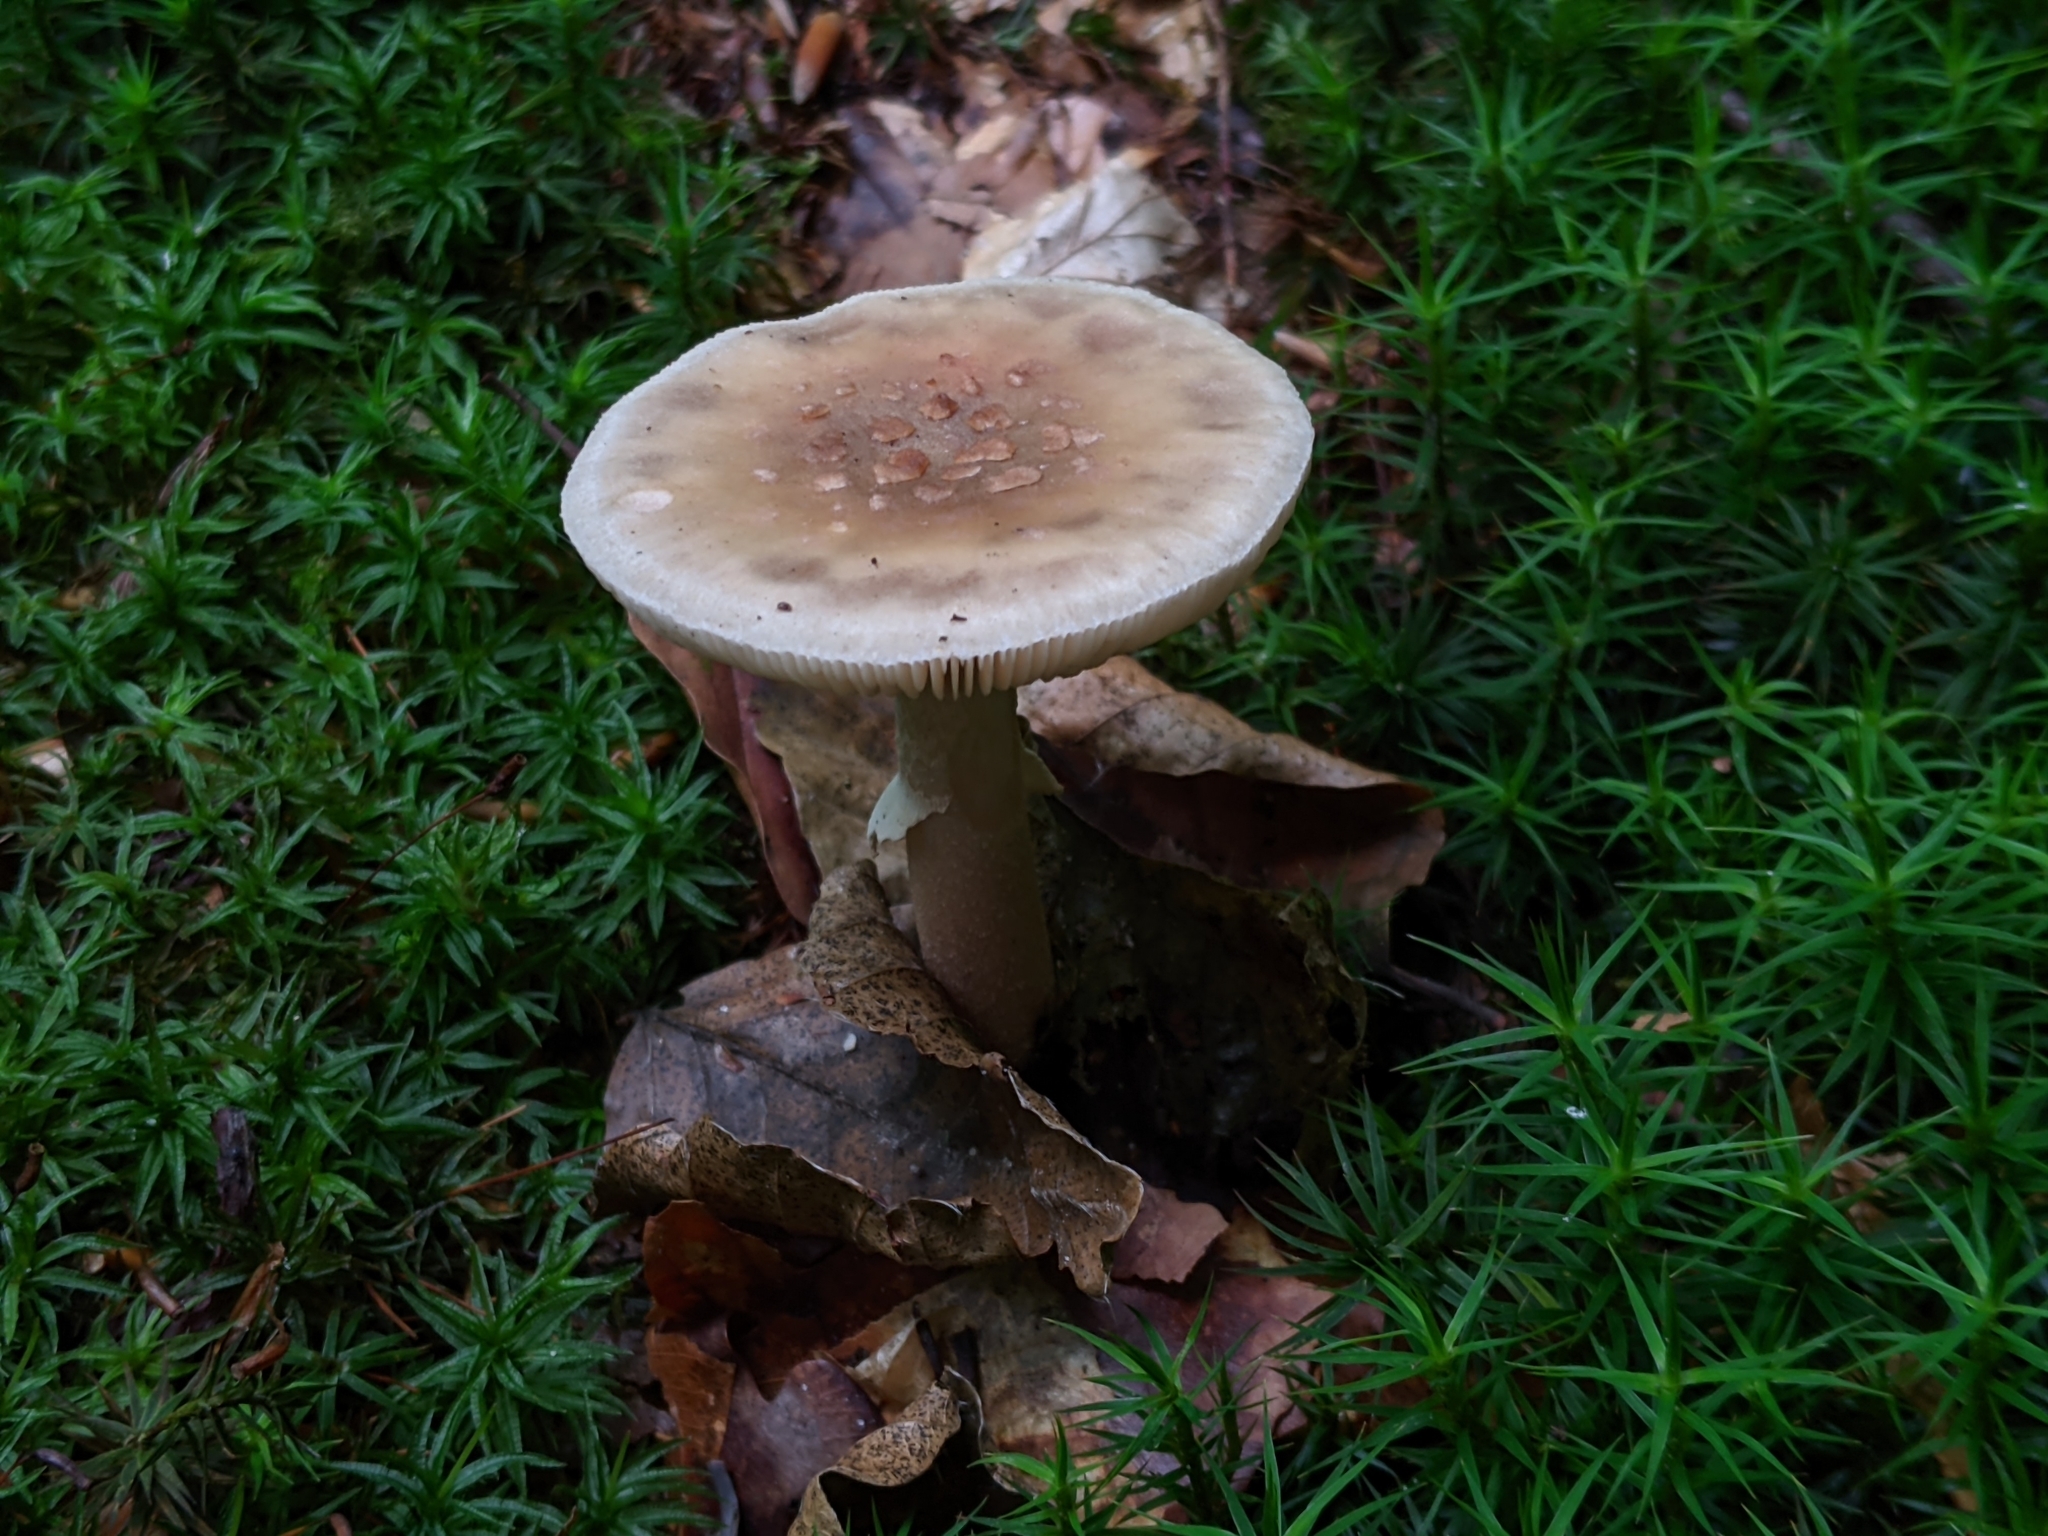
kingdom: Fungi
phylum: Basidiomycota
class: Agaricomycetes
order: Agaricales
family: Amanitaceae
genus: Amanita
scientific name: Amanita rubescens
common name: Blusher
